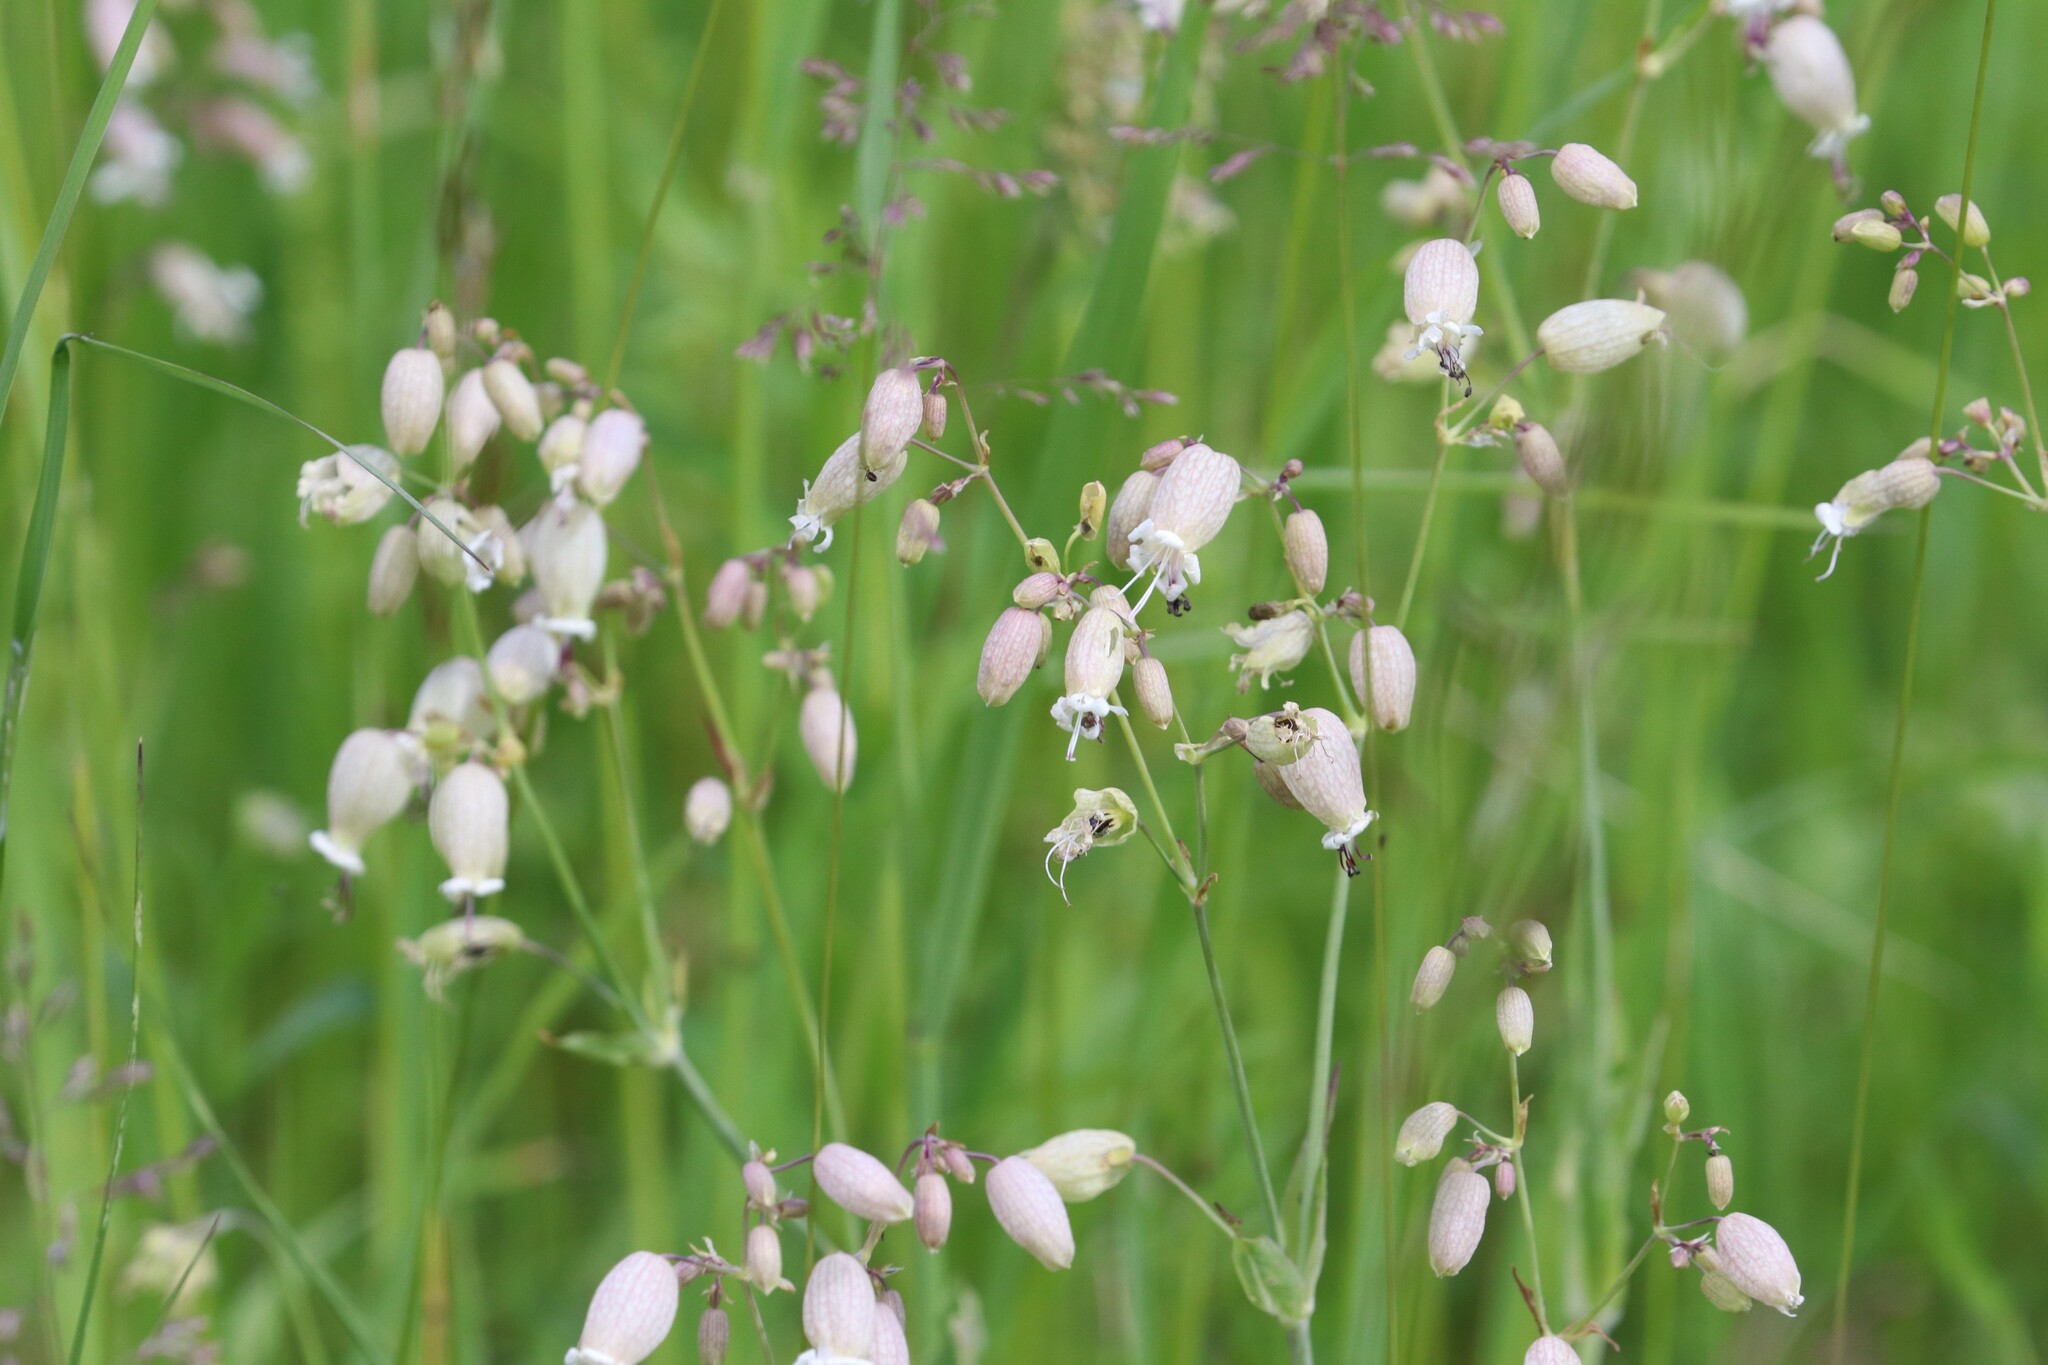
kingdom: Plantae
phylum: Tracheophyta
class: Magnoliopsida
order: Caryophyllales
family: Caryophyllaceae
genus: Silene
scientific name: Silene vulgaris
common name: Bladder campion
